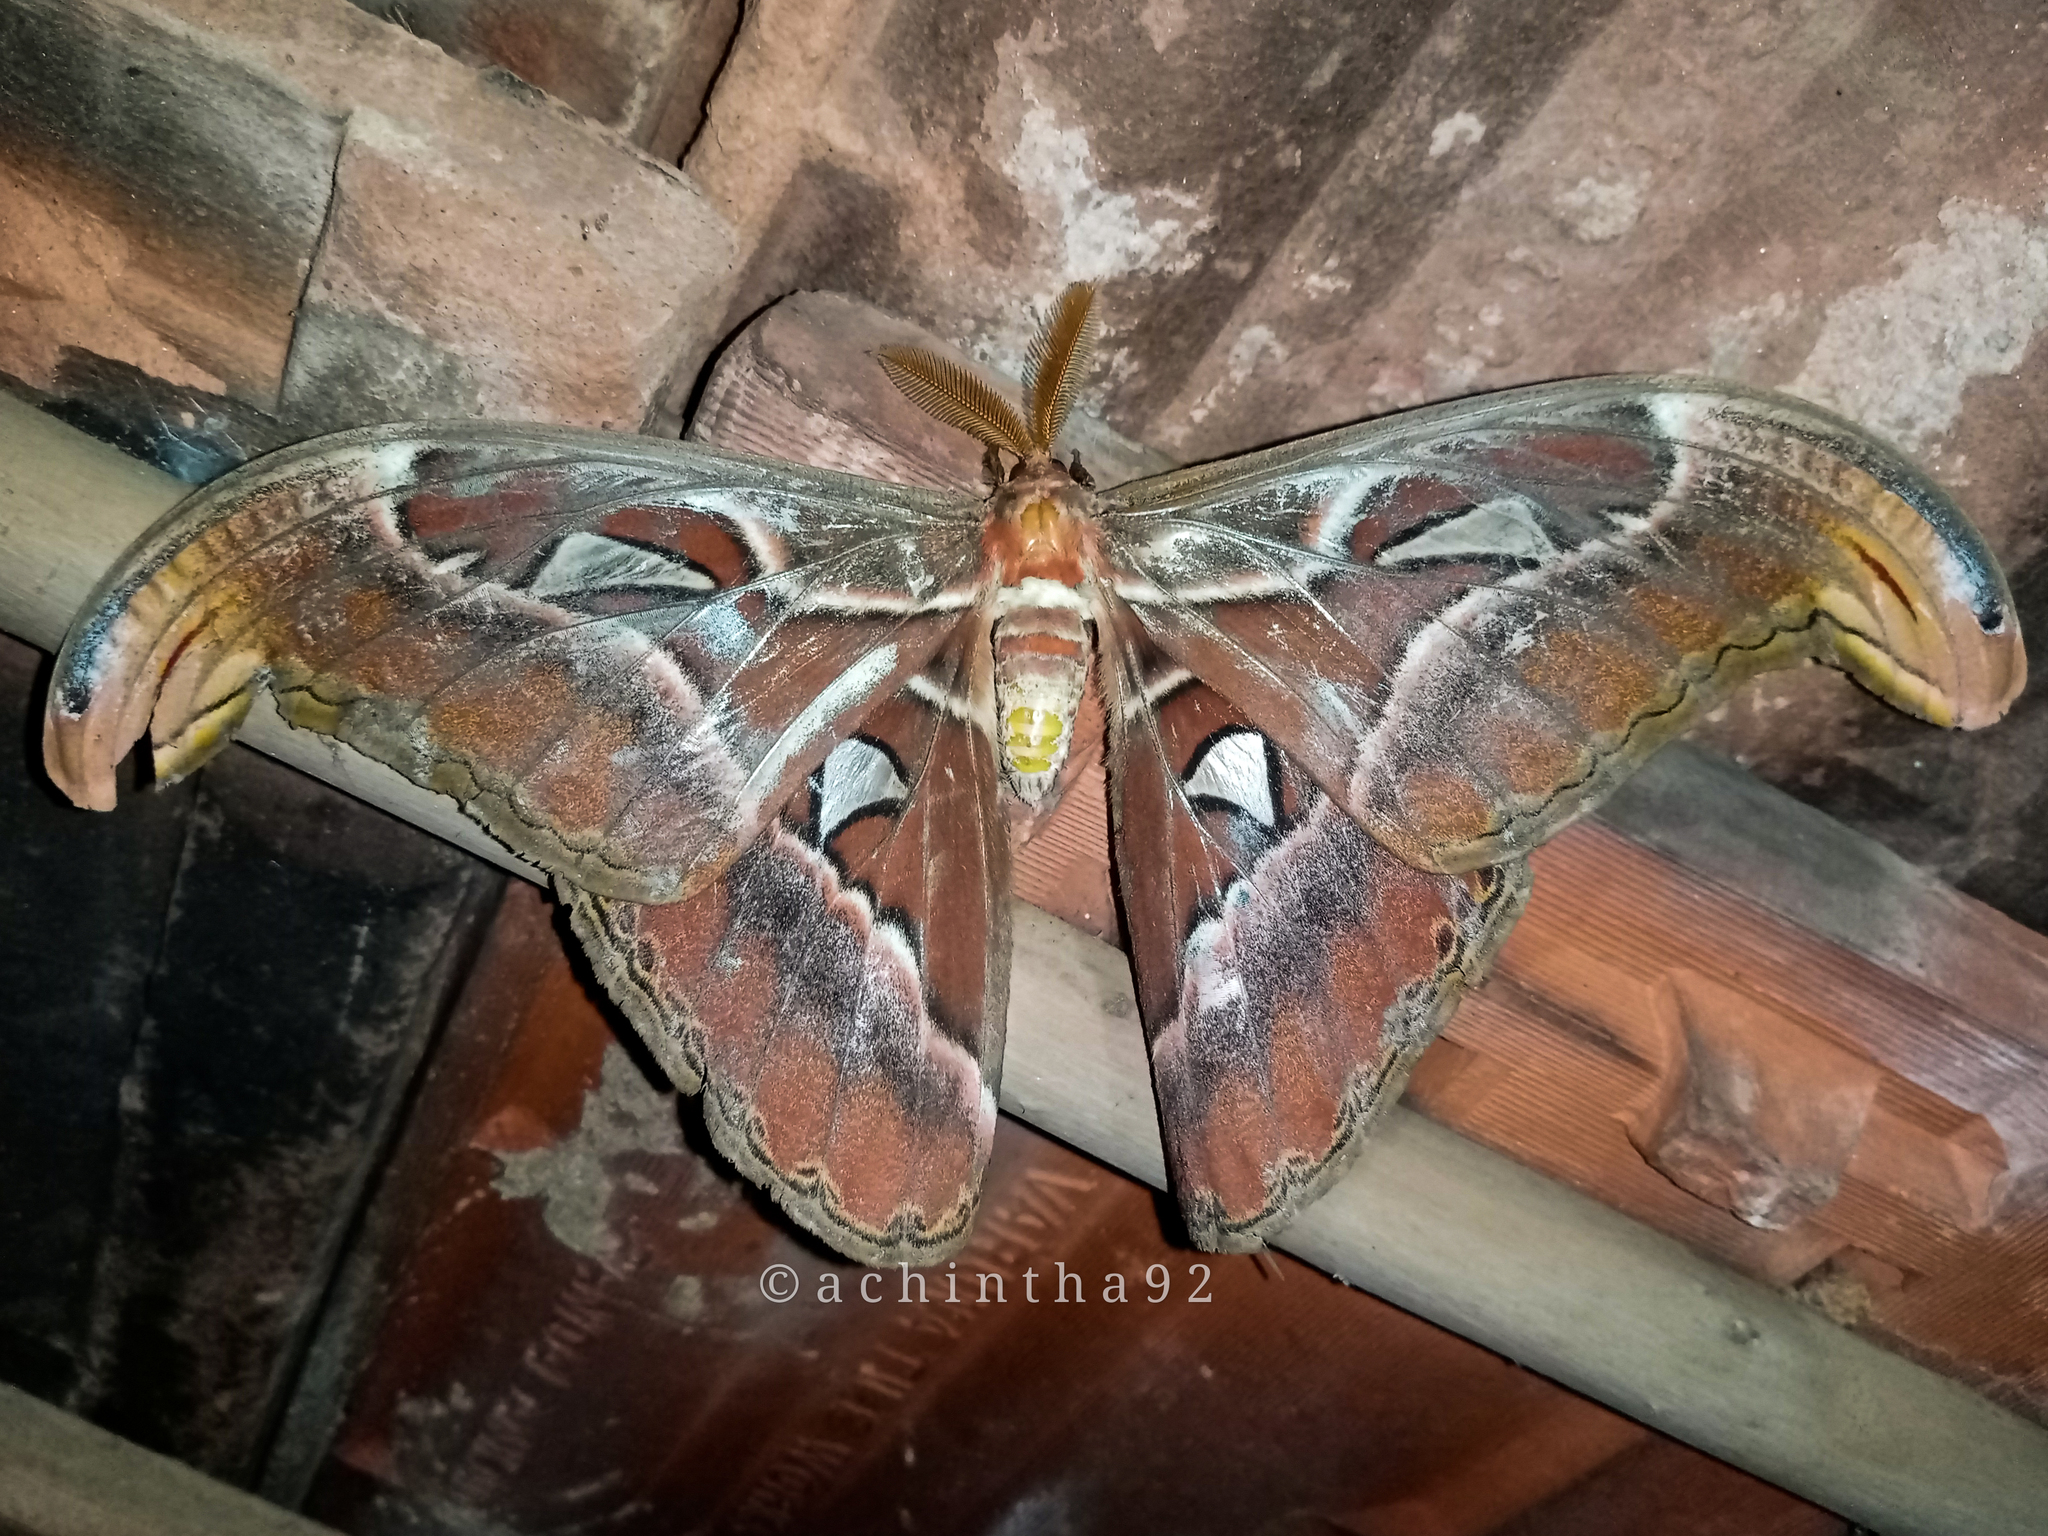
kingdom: Animalia
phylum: Arthropoda
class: Insecta
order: Lepidoptera
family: Saturniidae
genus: Attacus
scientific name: Attacus taprobanis
